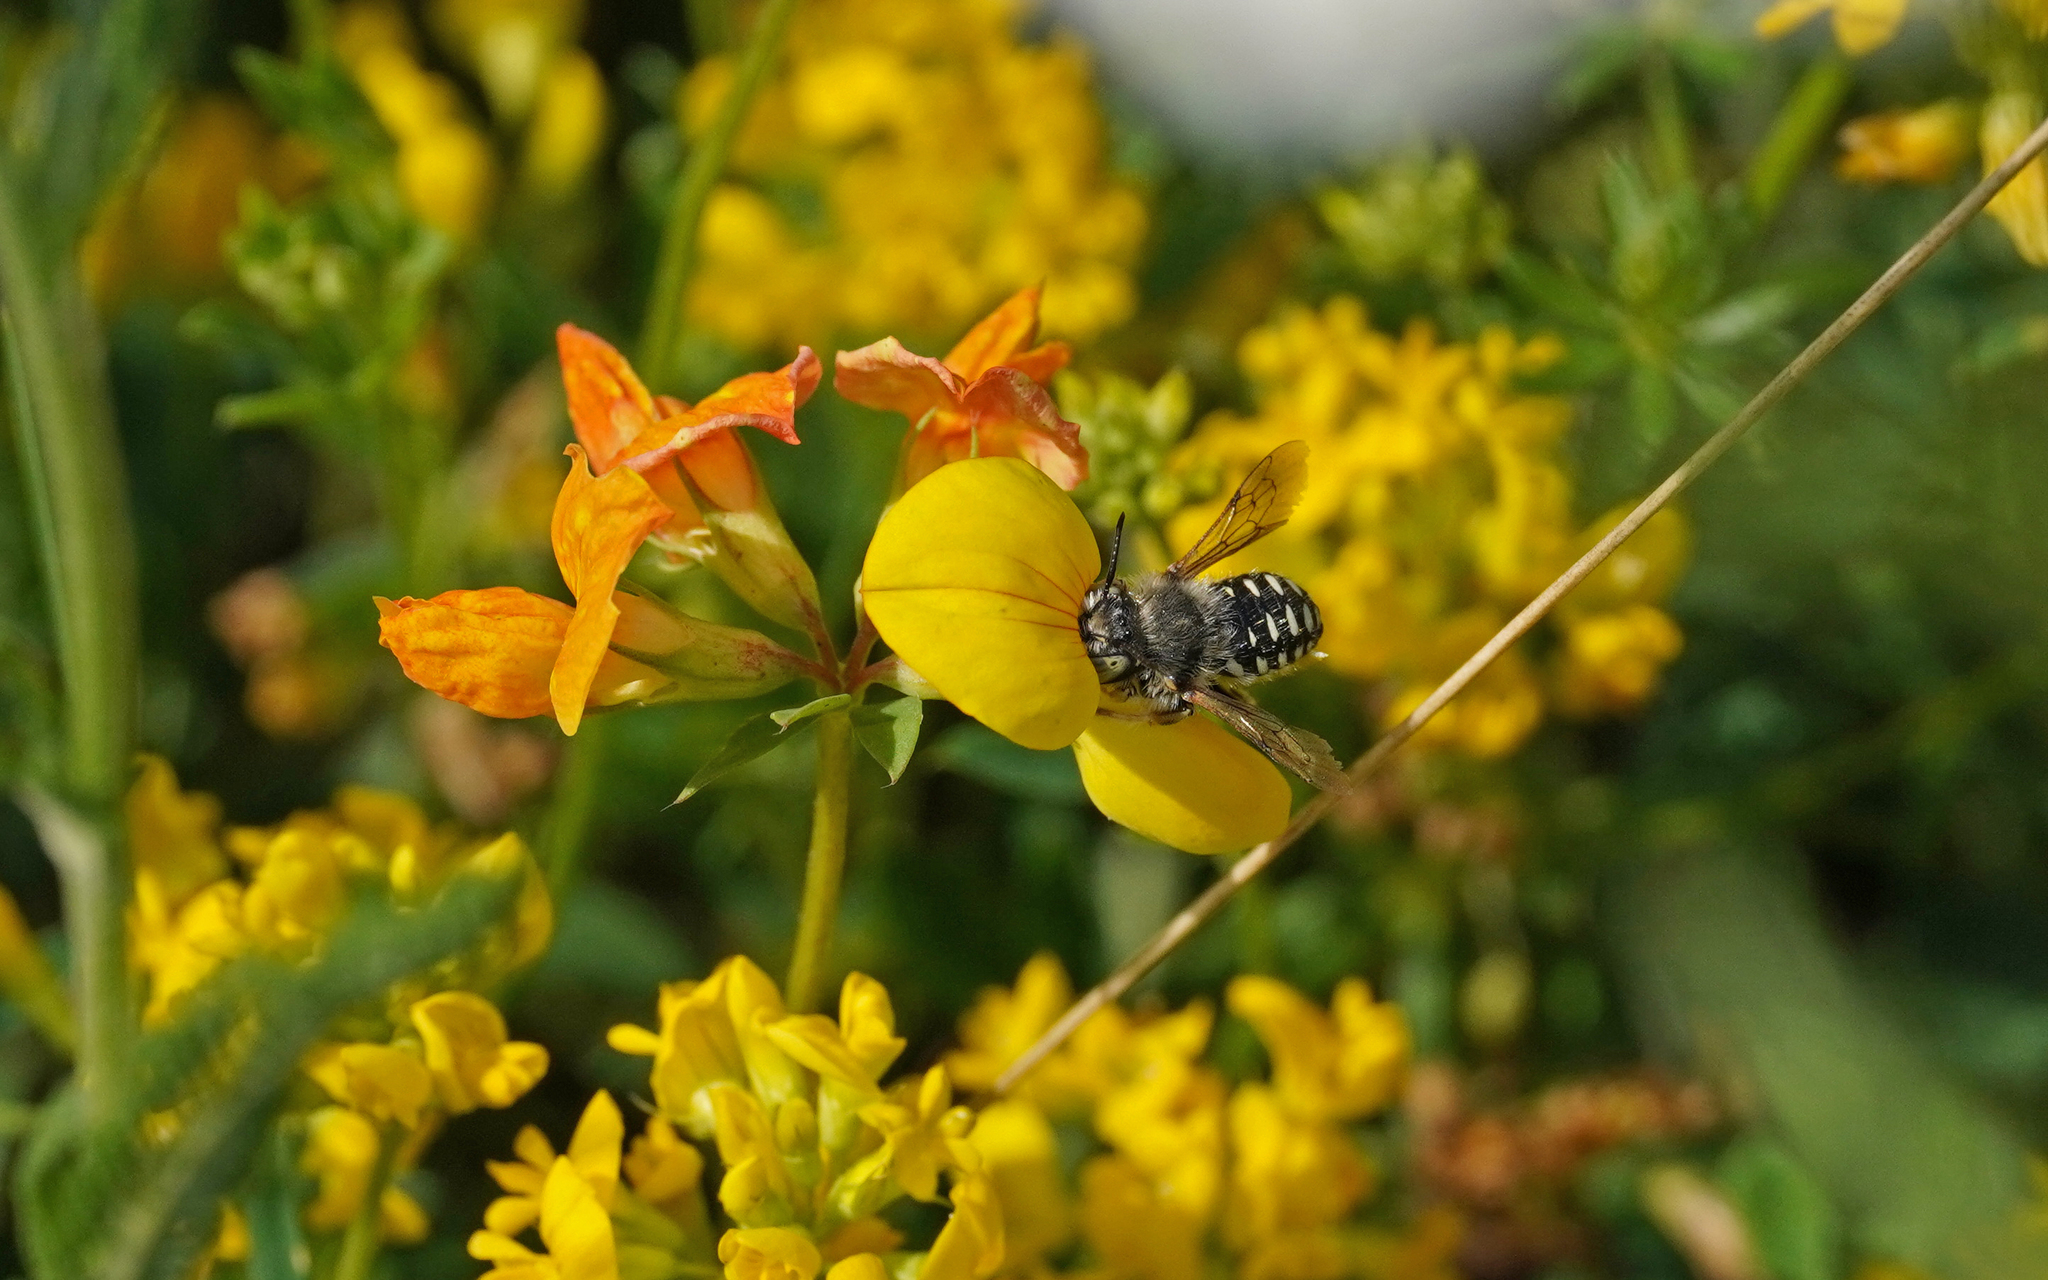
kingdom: Animalia
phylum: Arthropoda
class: Insecta
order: Hymenoptera
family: Megachilidae
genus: Anthidium
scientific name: Anthidium punctatum
